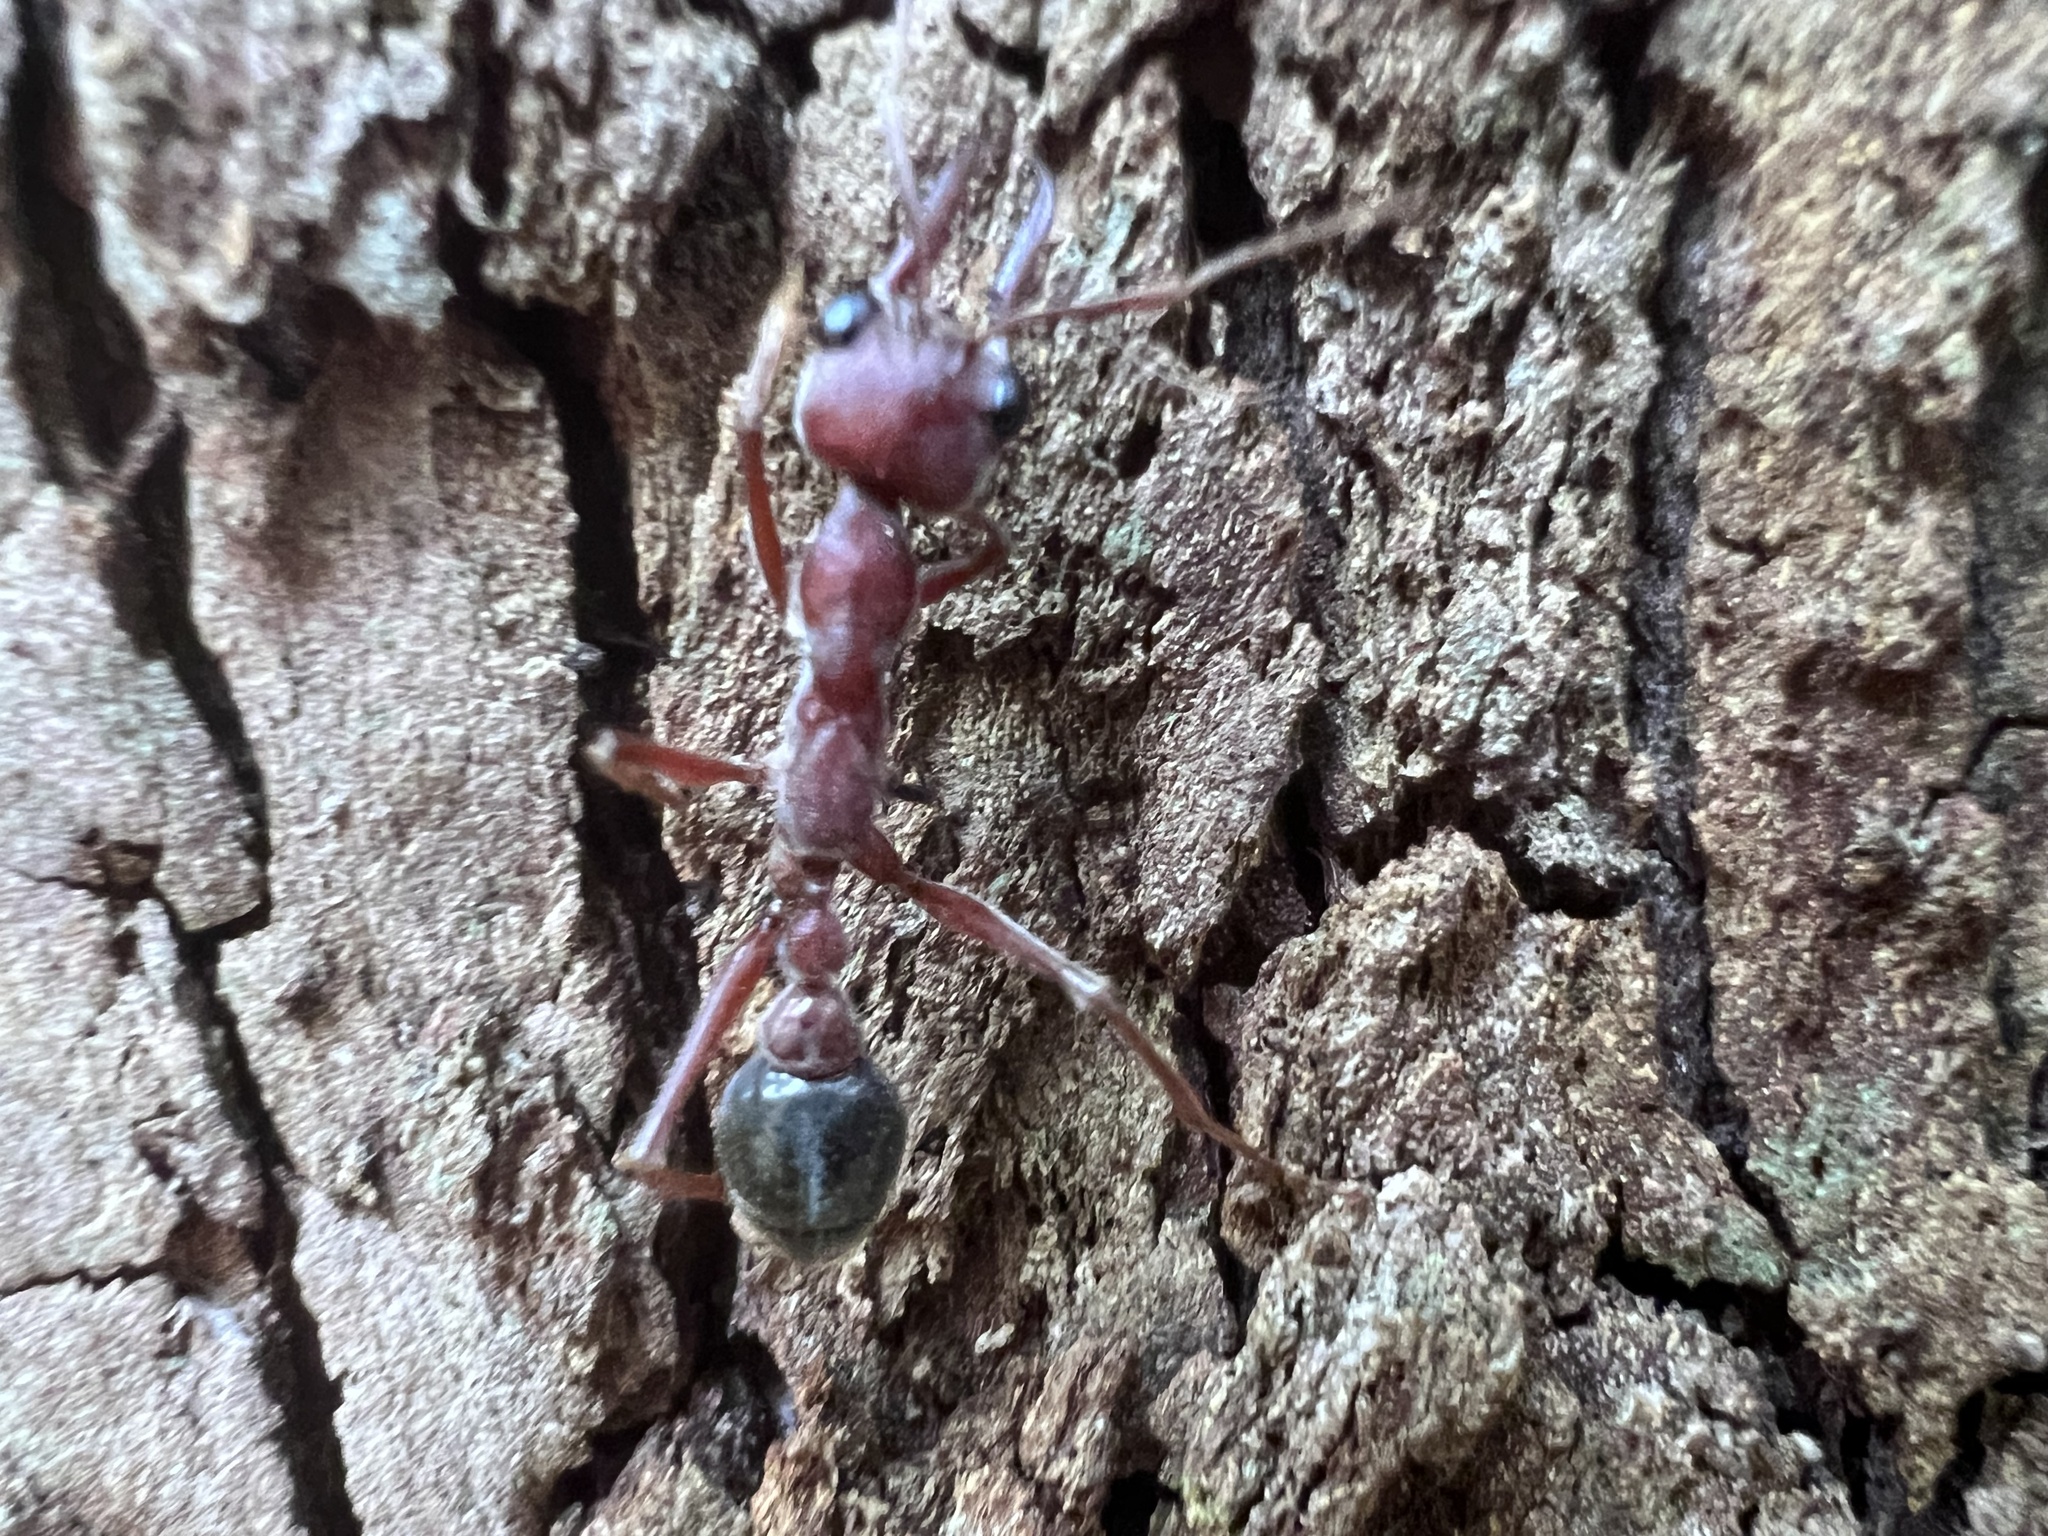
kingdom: Animalia
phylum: Arthropoda
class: Insecta
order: Hymenoptera
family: Formicidae
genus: Myrmecia
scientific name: Myrmecia brevinoda
